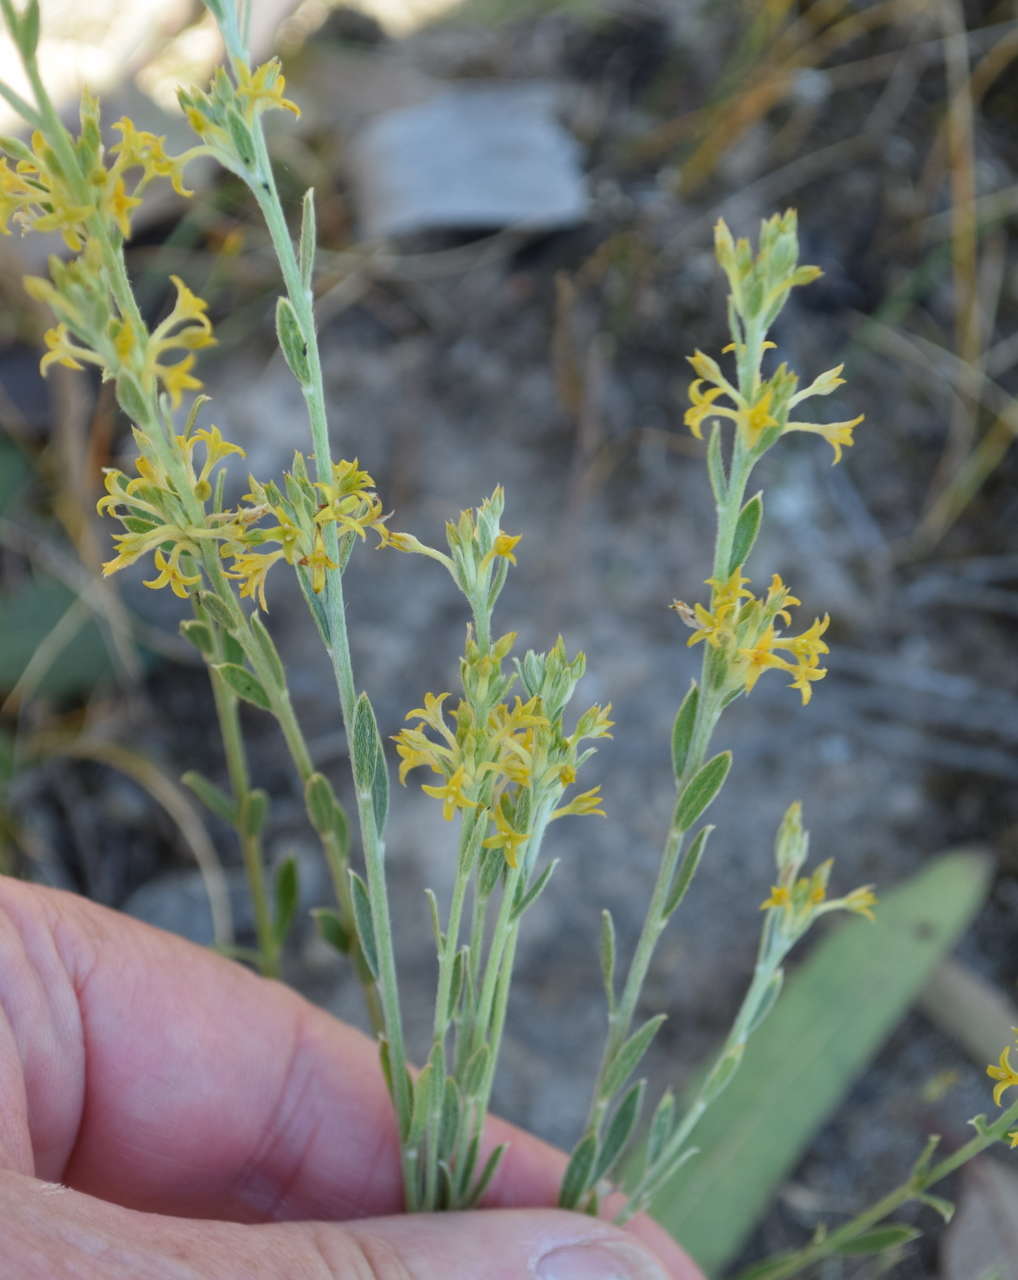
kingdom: Plantae
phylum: Tracheophyta
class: Magnoliopsida
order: Malvales
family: Thymelaeaceae
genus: Pimelea
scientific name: Pimelea curviflora
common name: Curved riceflower
